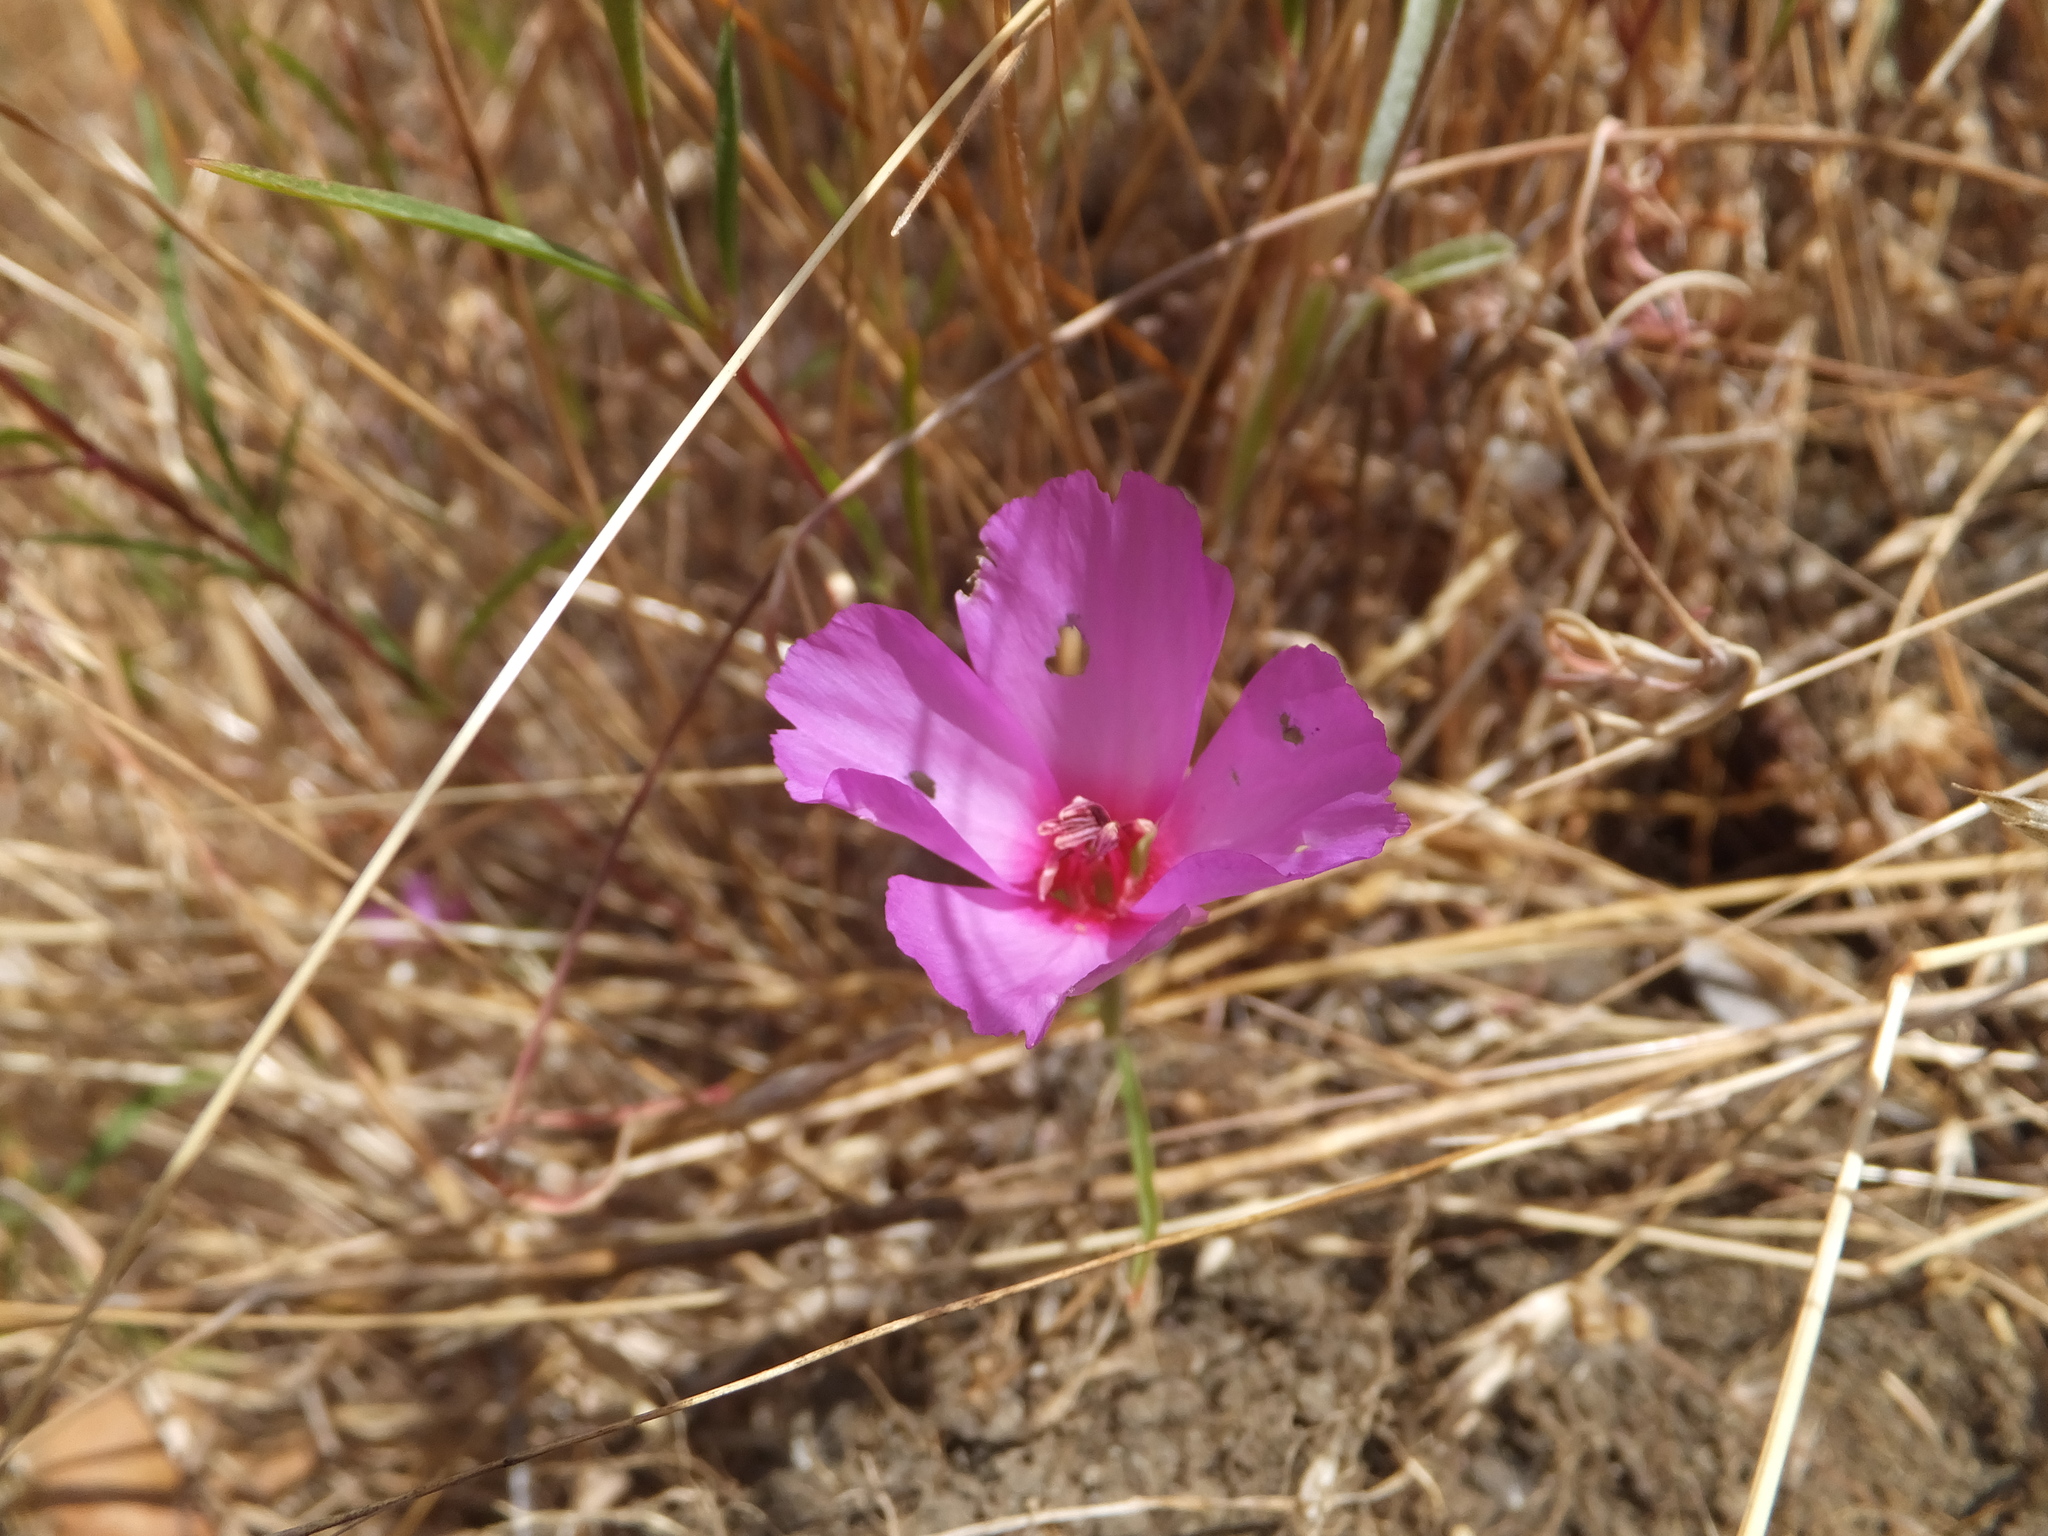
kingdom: Plantae
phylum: Tracheophyta
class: Magnoliopsida
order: Myrtales
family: Onagraceae
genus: Clarkia
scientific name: Clarkia rubicunda
